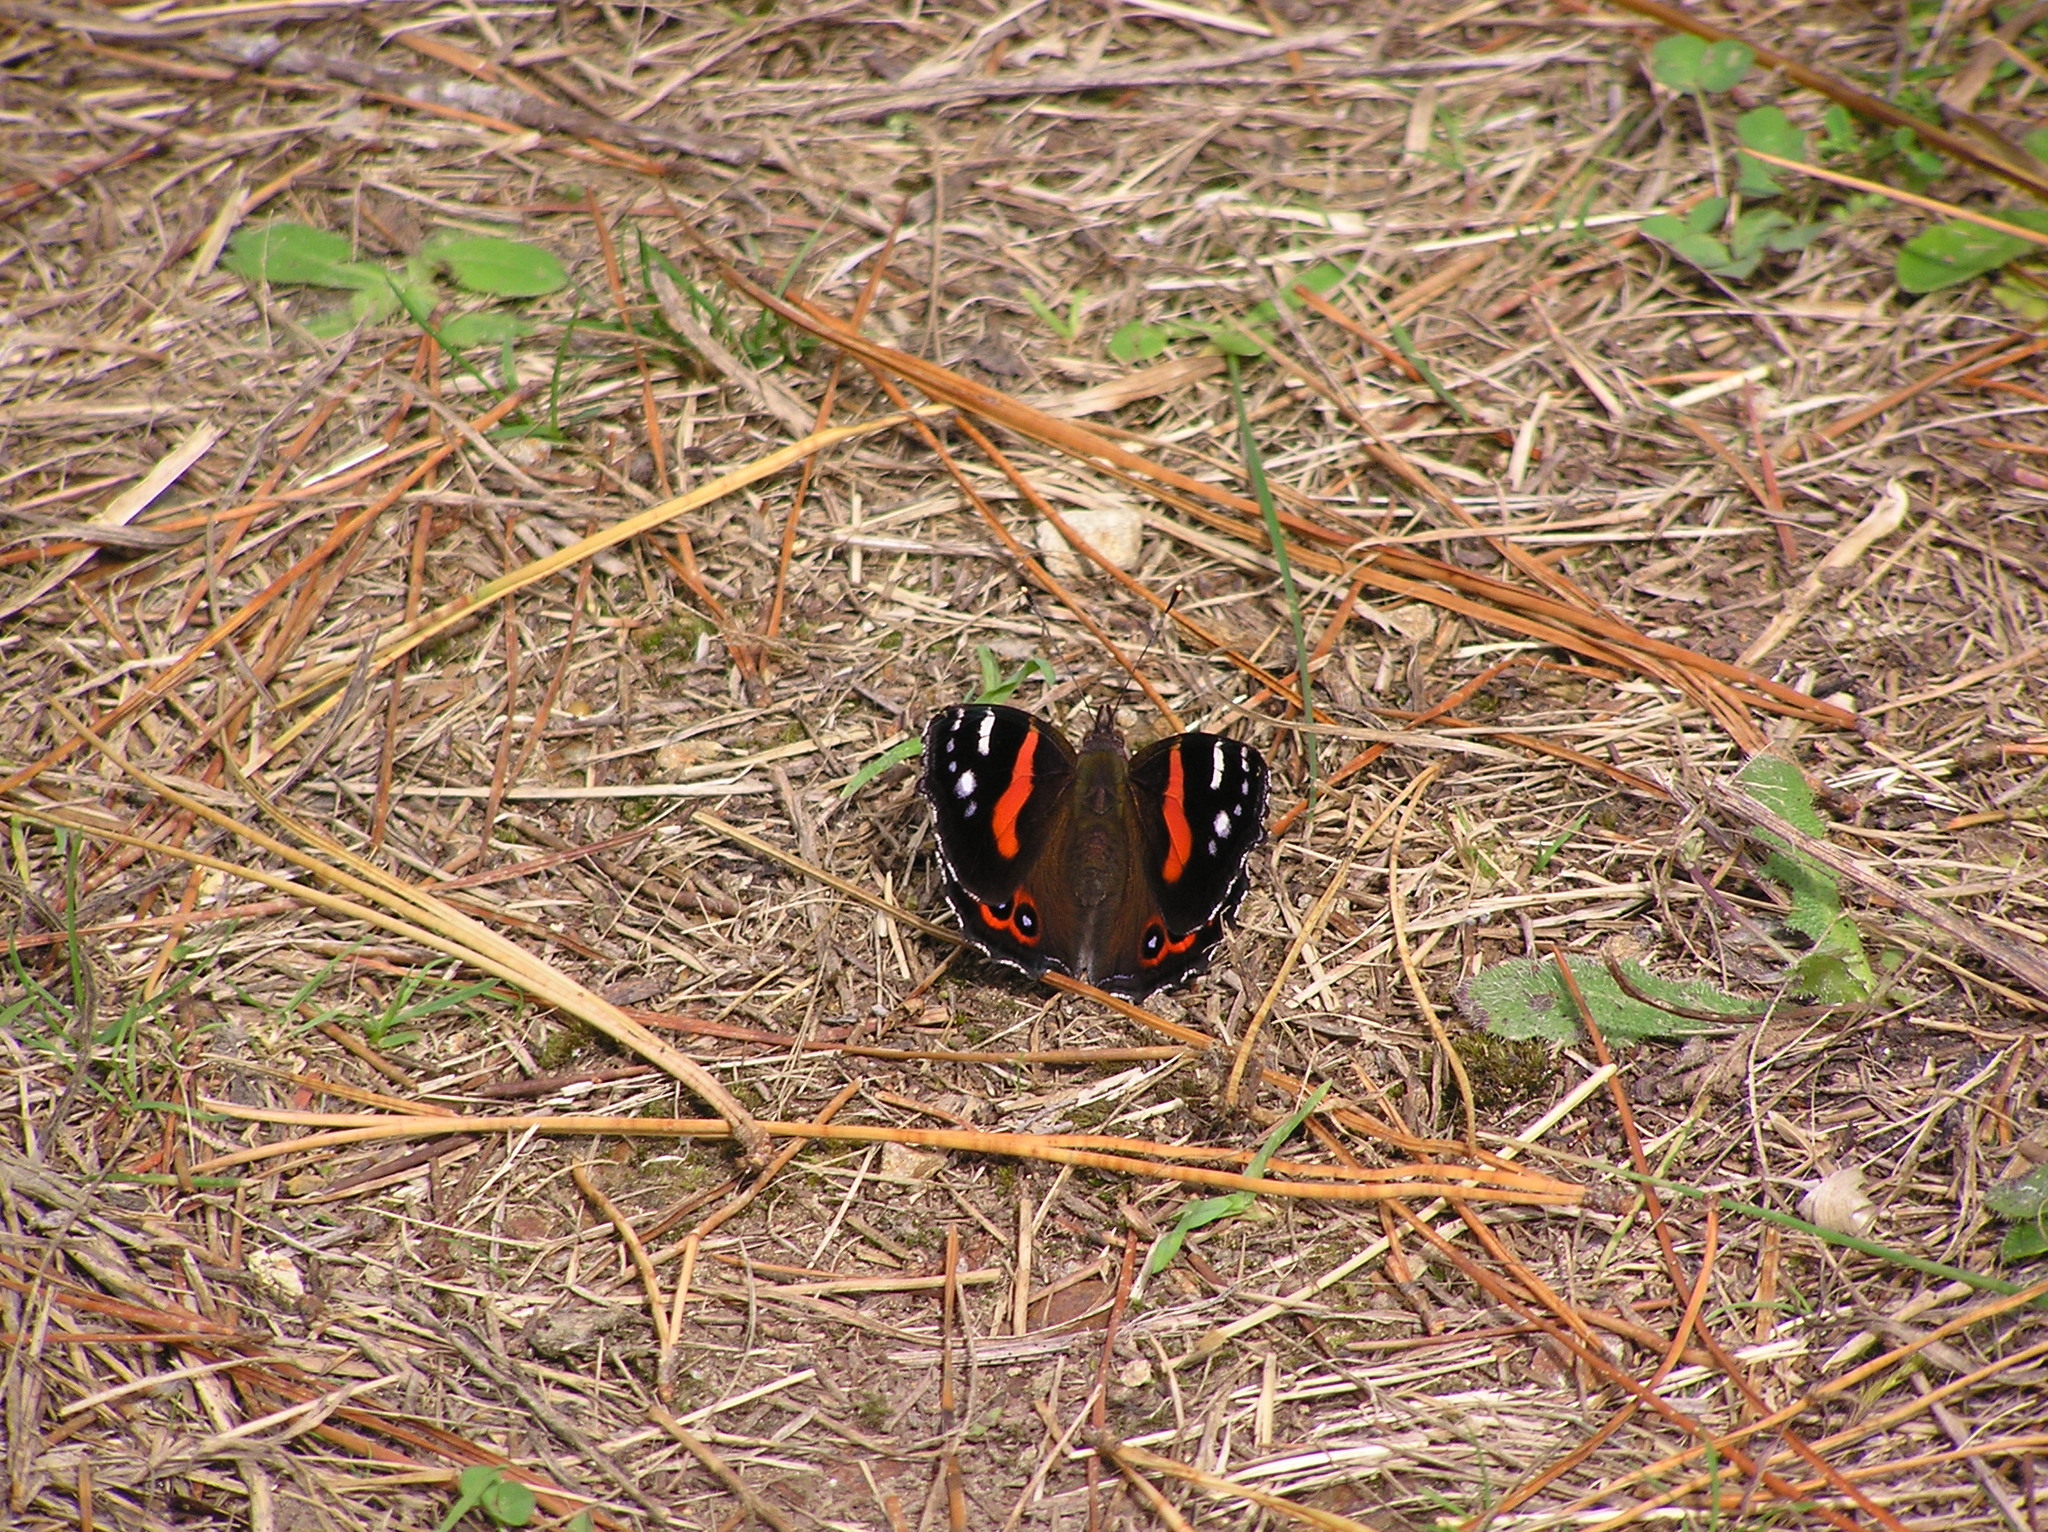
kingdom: Animalia
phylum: Arthropoda
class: Insecta
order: Lepidoptera
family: Nymphalidae
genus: Vanessa
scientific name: Vanessa gonerilla
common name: New zealand red admiral
